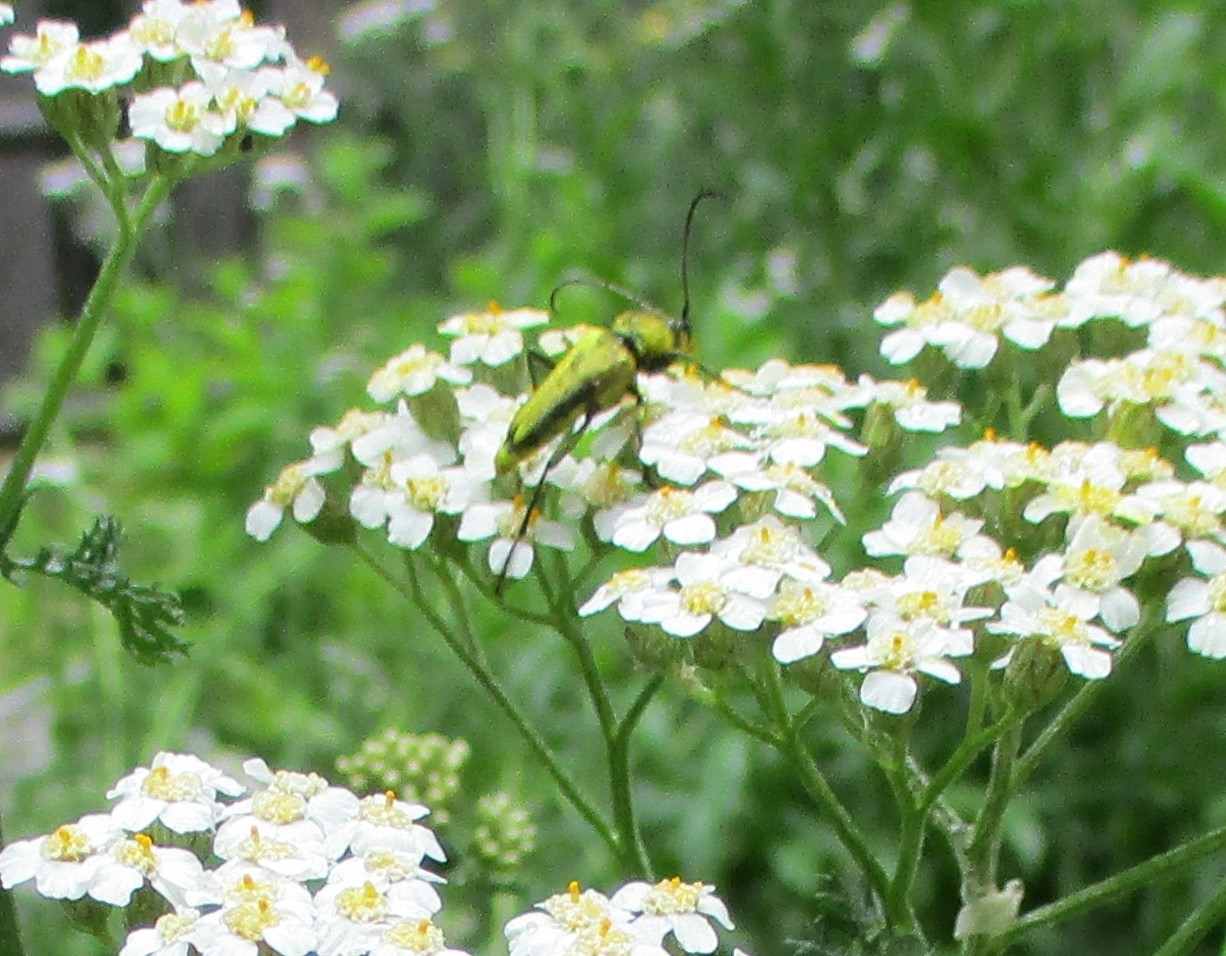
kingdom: Animalia
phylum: Arthropoda
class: Insecta
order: Coleoptera
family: Cerambycidae
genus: Cosmosalia
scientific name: Cosmosalia chrysocoma
